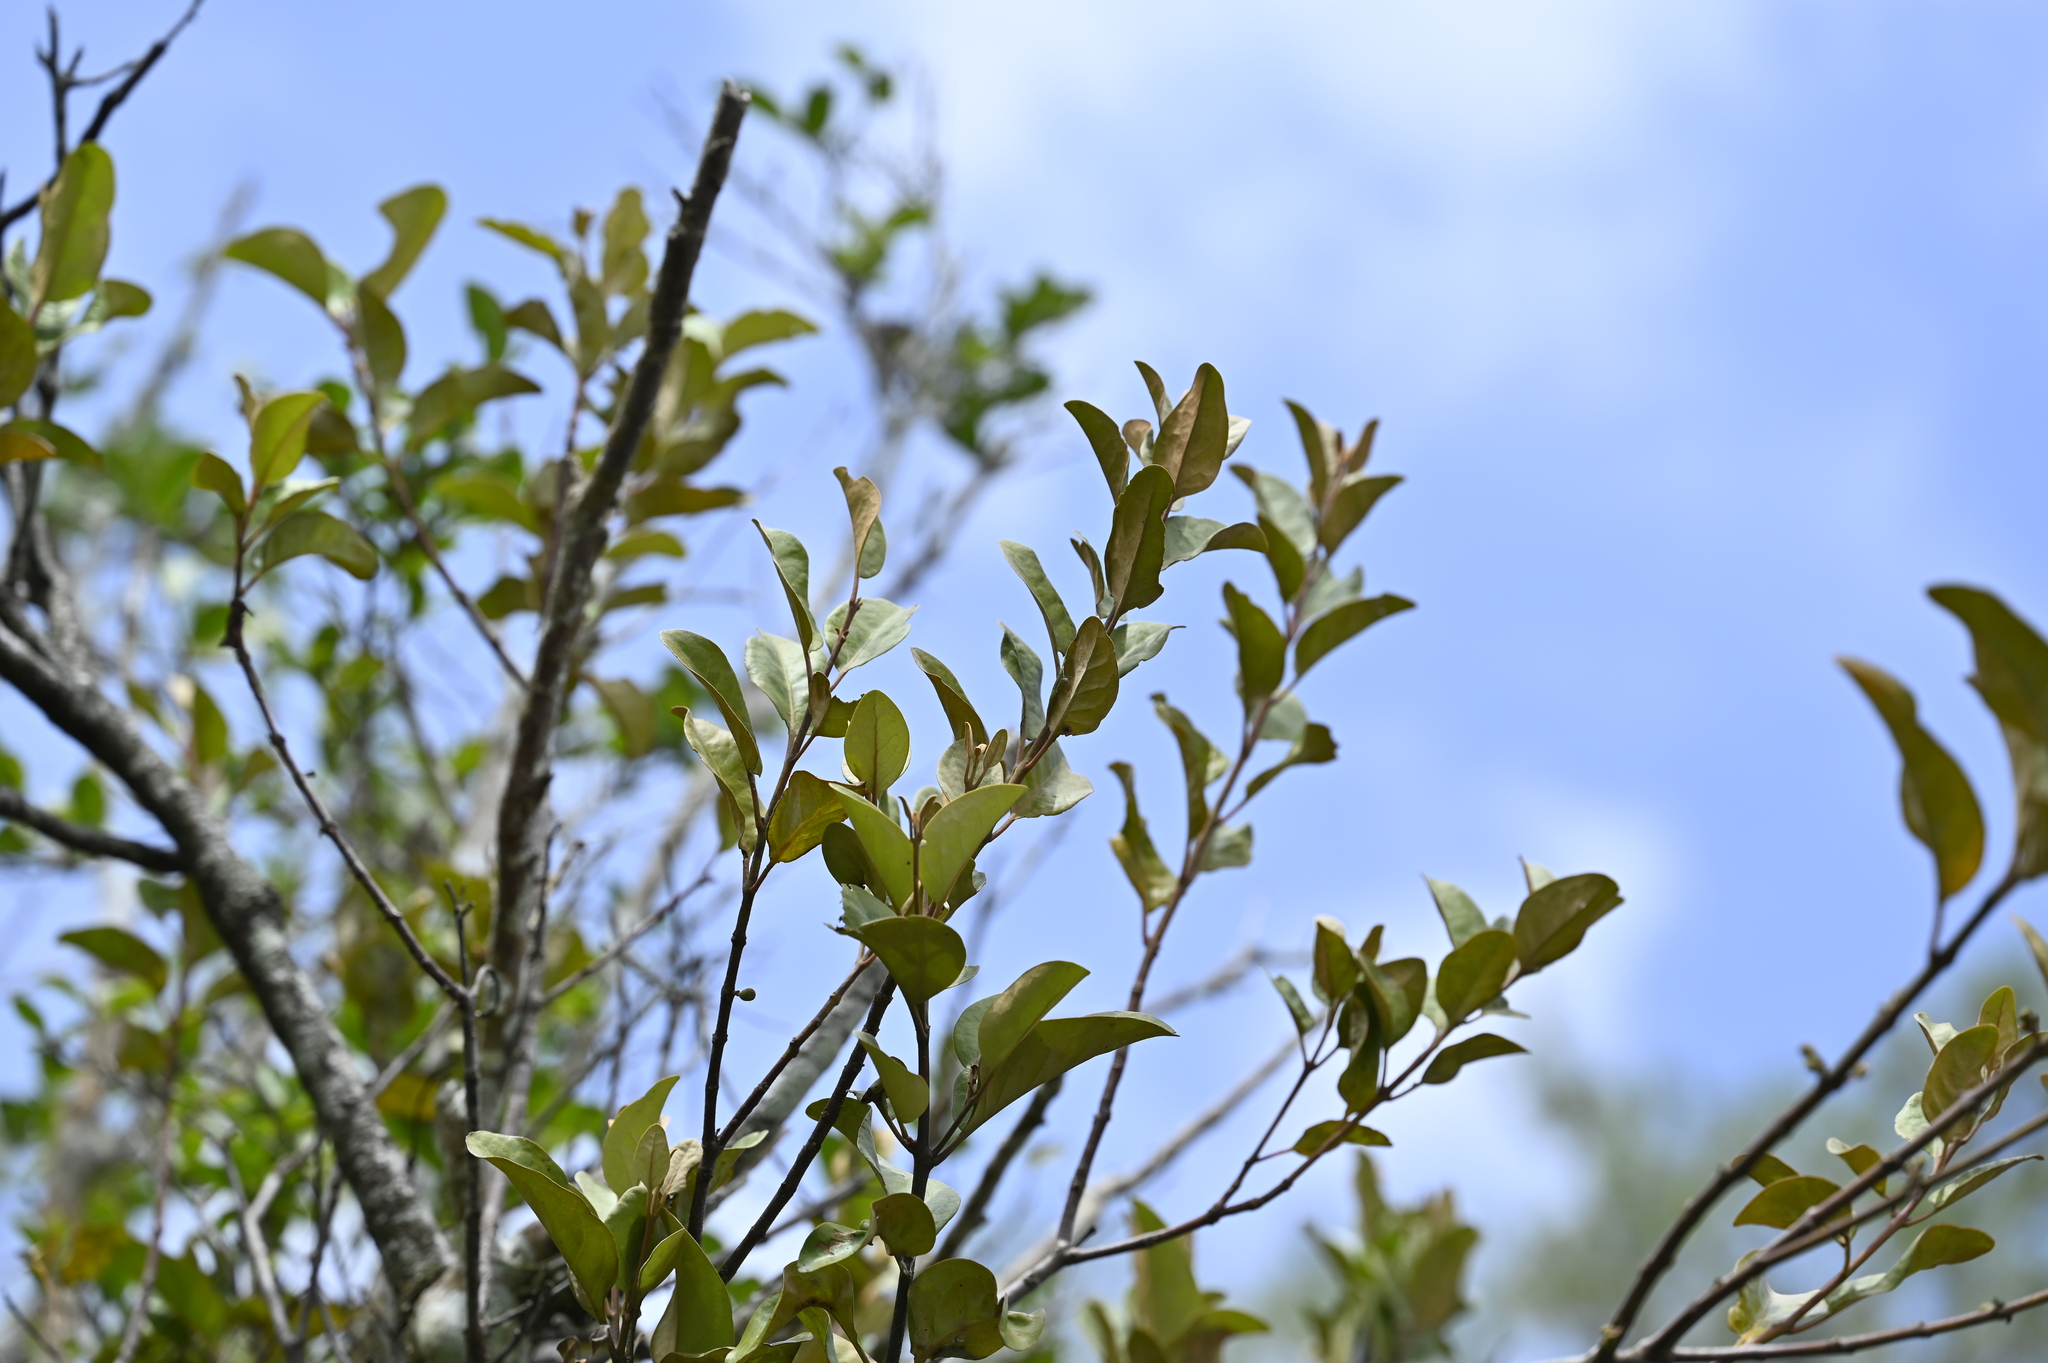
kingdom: Plantae
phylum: Tracheophyta
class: Magnoliopsida
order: Santalales
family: Loranthaceae
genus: Taxillus
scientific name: Taxillus tsaii
